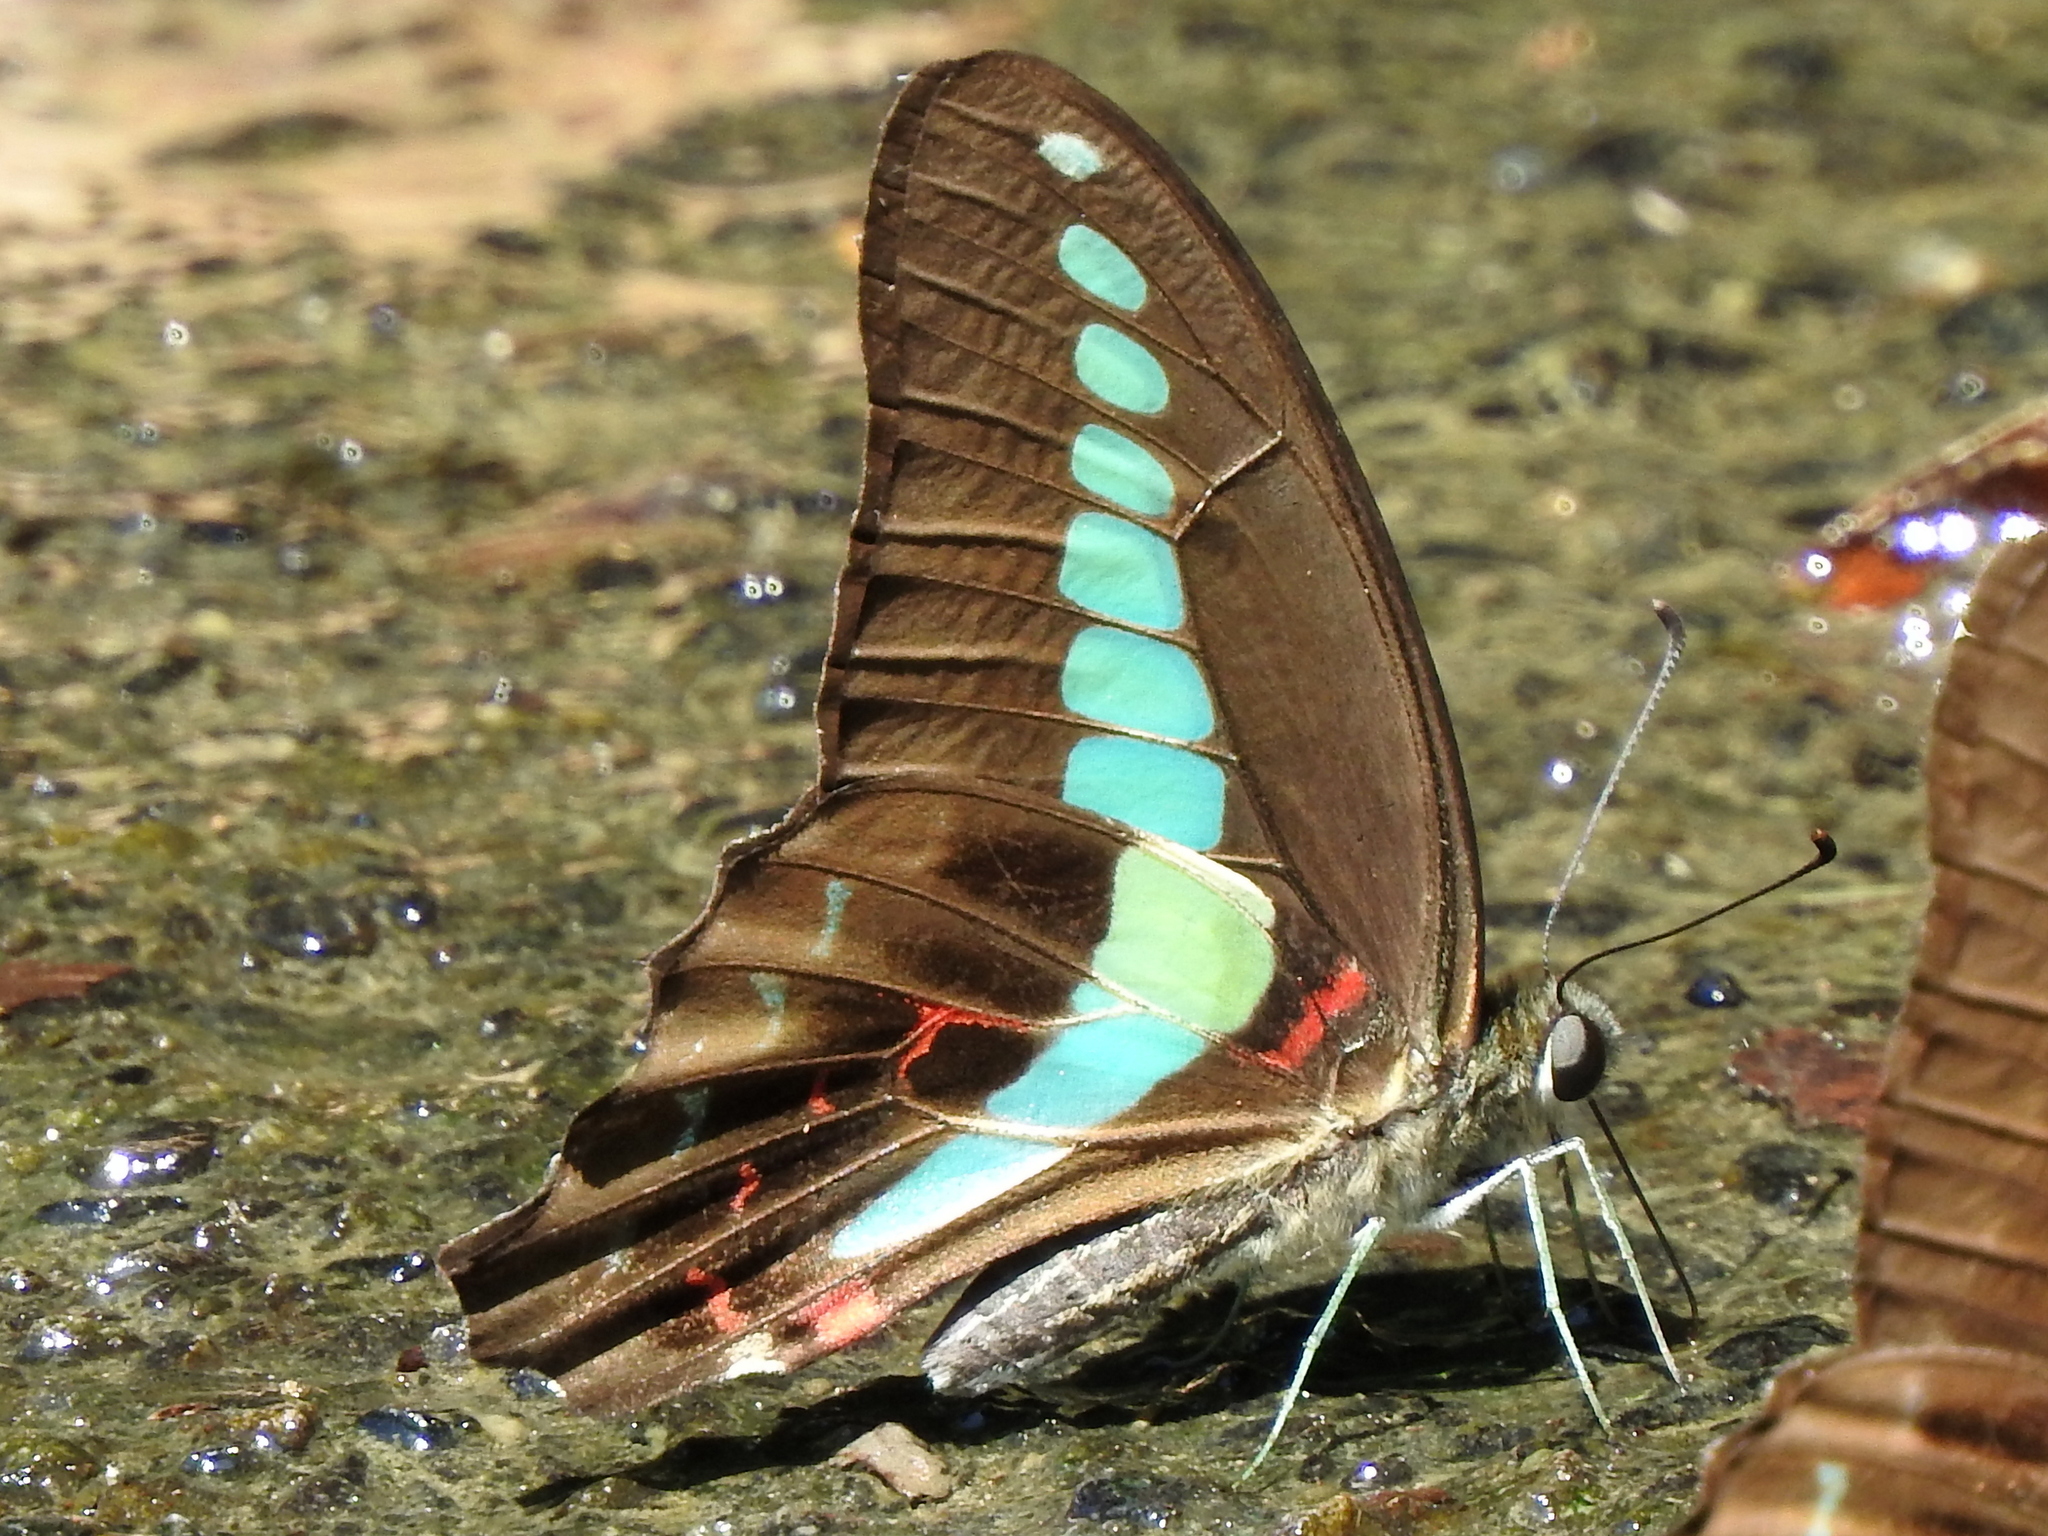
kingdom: Fungi
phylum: Ascomycota
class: Sordariomycetes
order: Microascales
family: Microascaceae
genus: Graphium
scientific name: Graphium sarpedon
